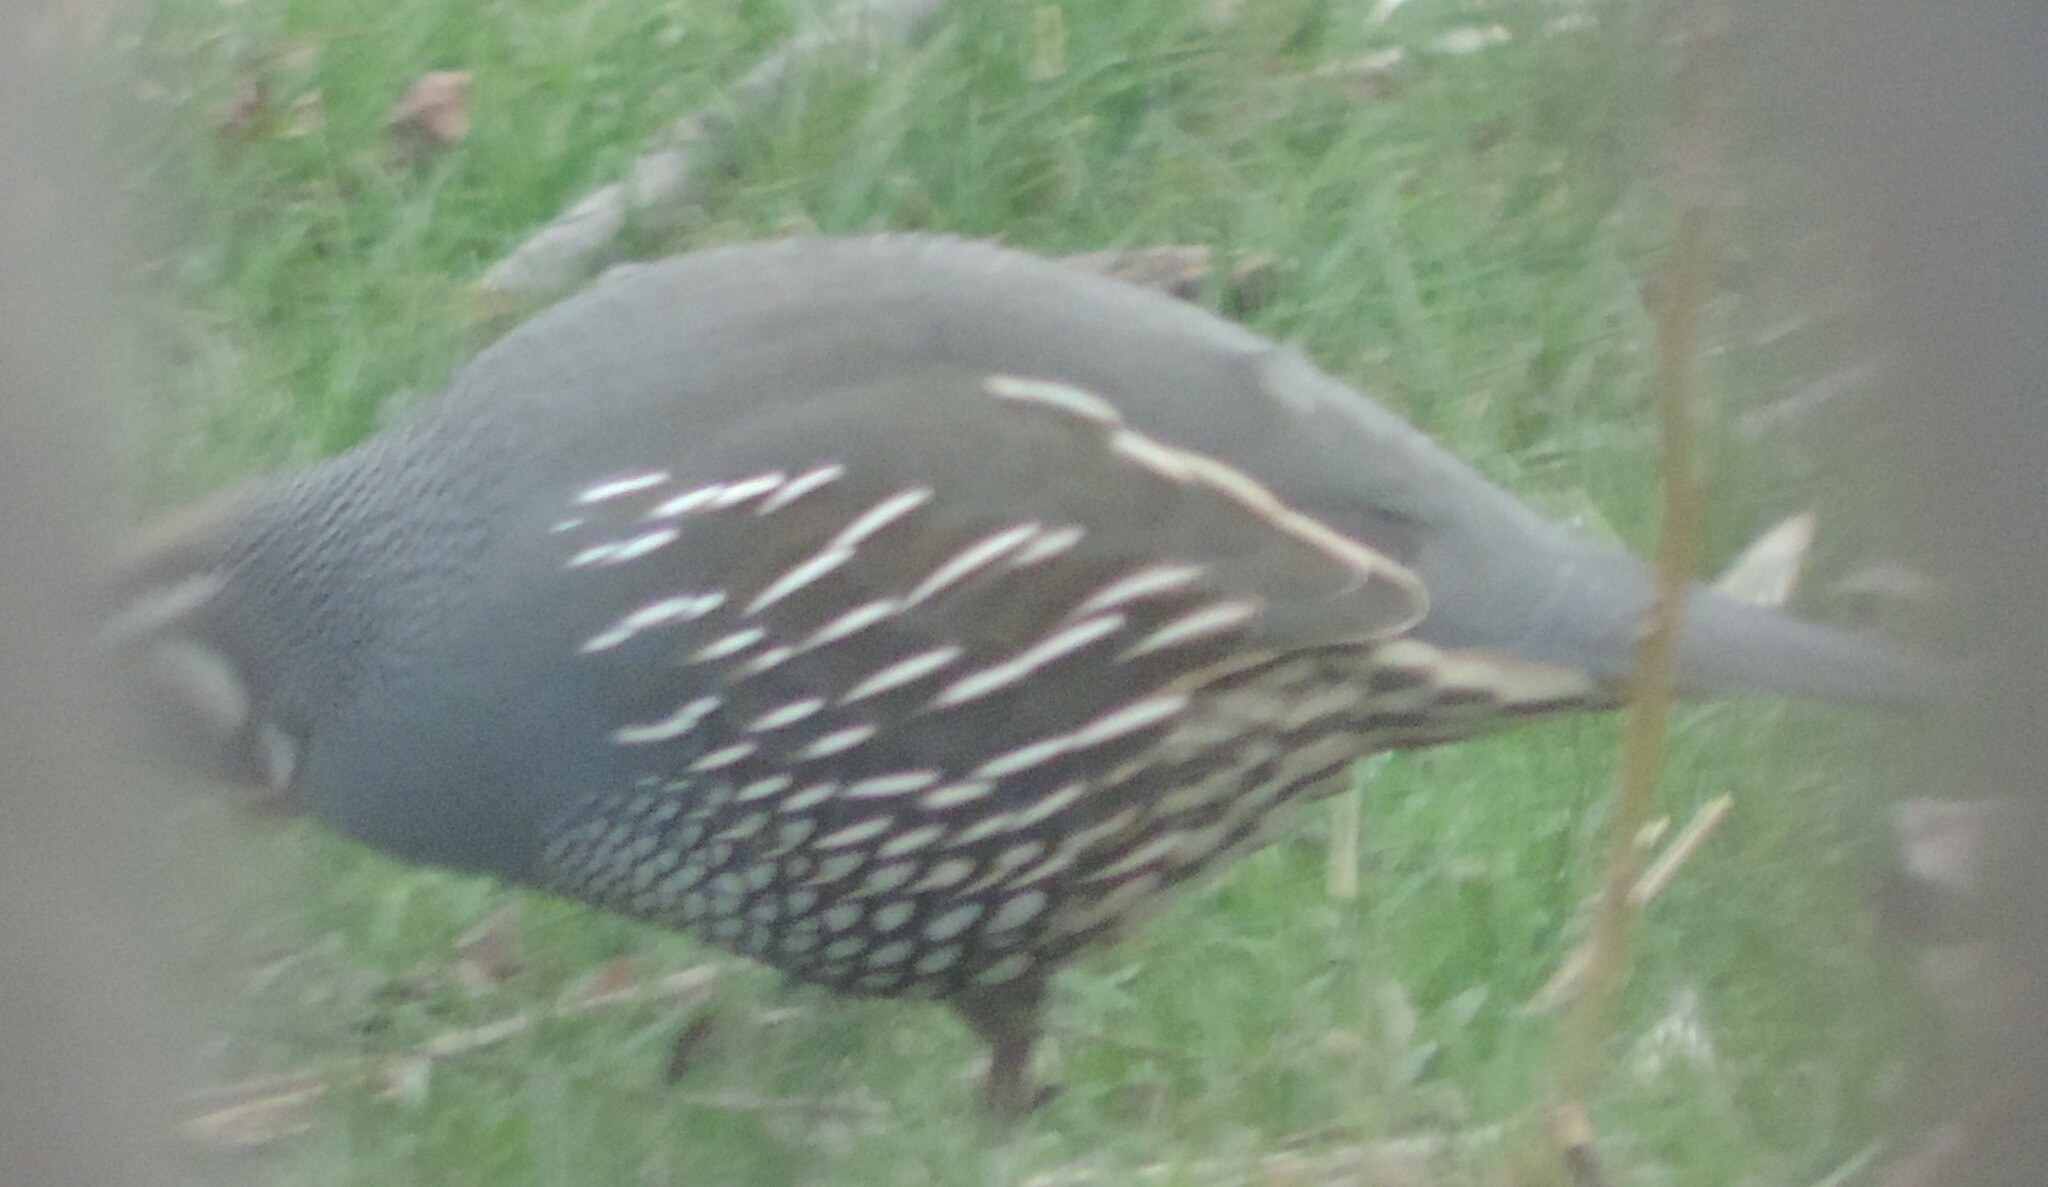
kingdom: Animalia
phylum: Chordata
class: Aves
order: Galliformes
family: Odontophoridae
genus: Callipepla
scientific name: Callipepla californica
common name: California quail
